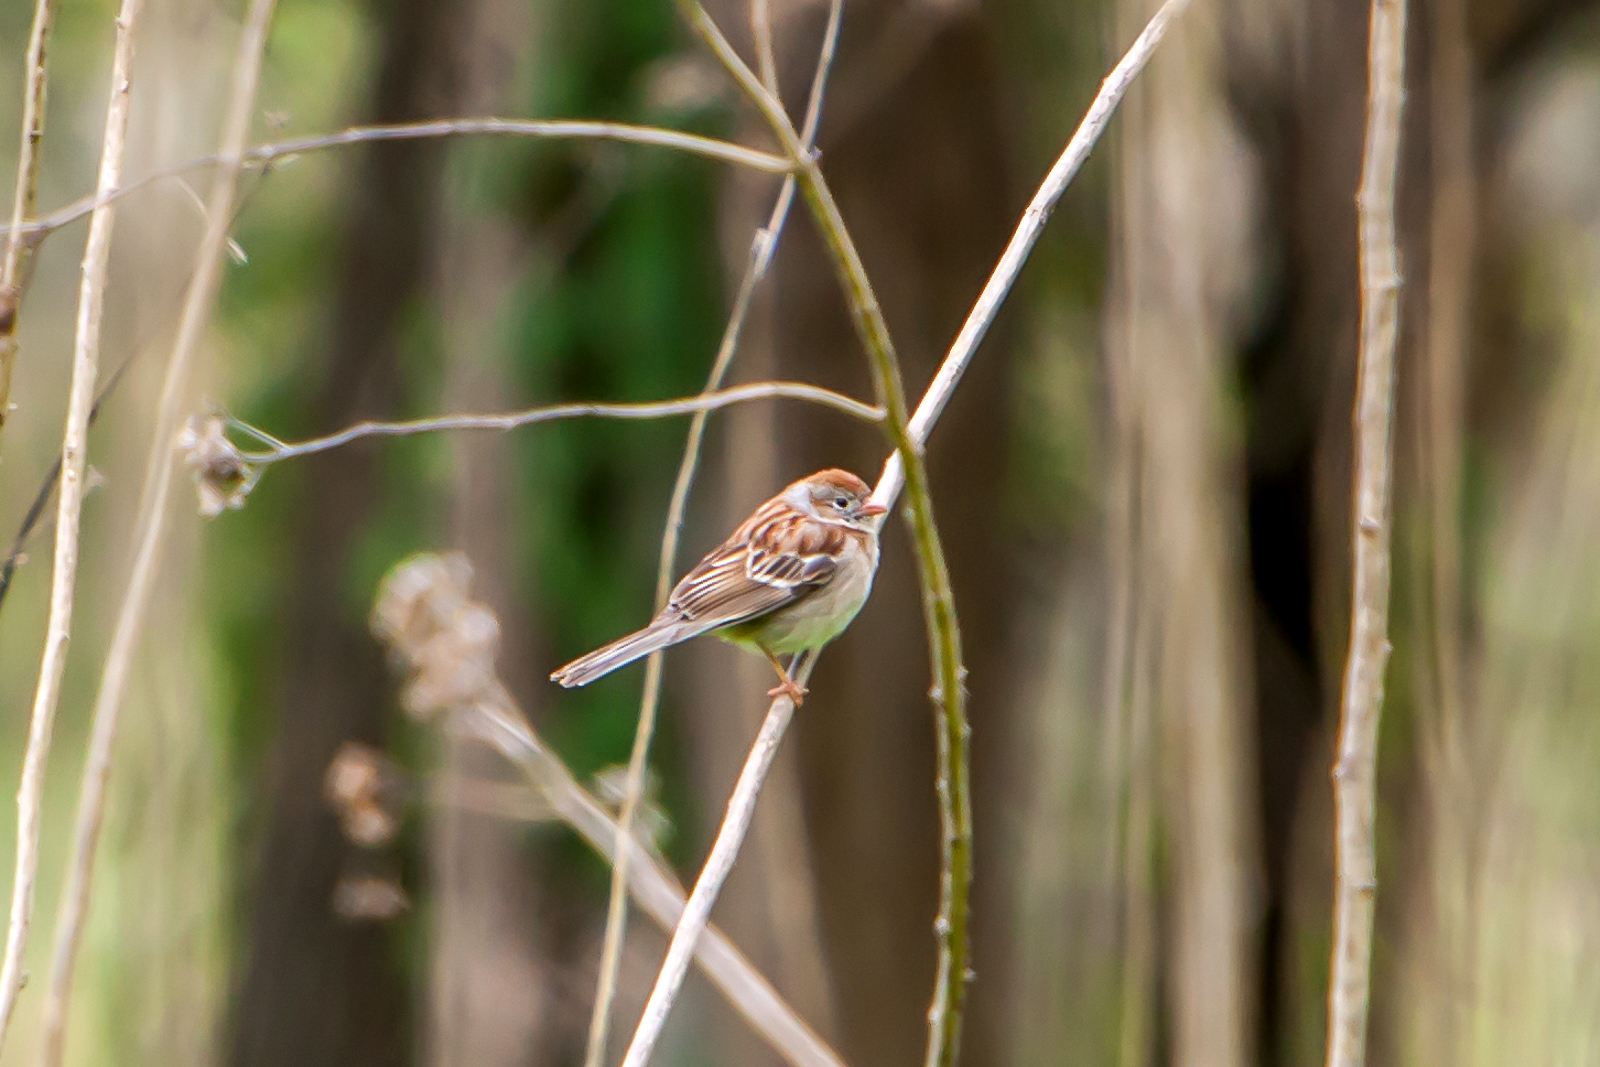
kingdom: Animalia
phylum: Chordata
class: Aves
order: Passeriformes
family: Passerellidae
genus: Spizella
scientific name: Spizella pusilla
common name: Field sparrow
